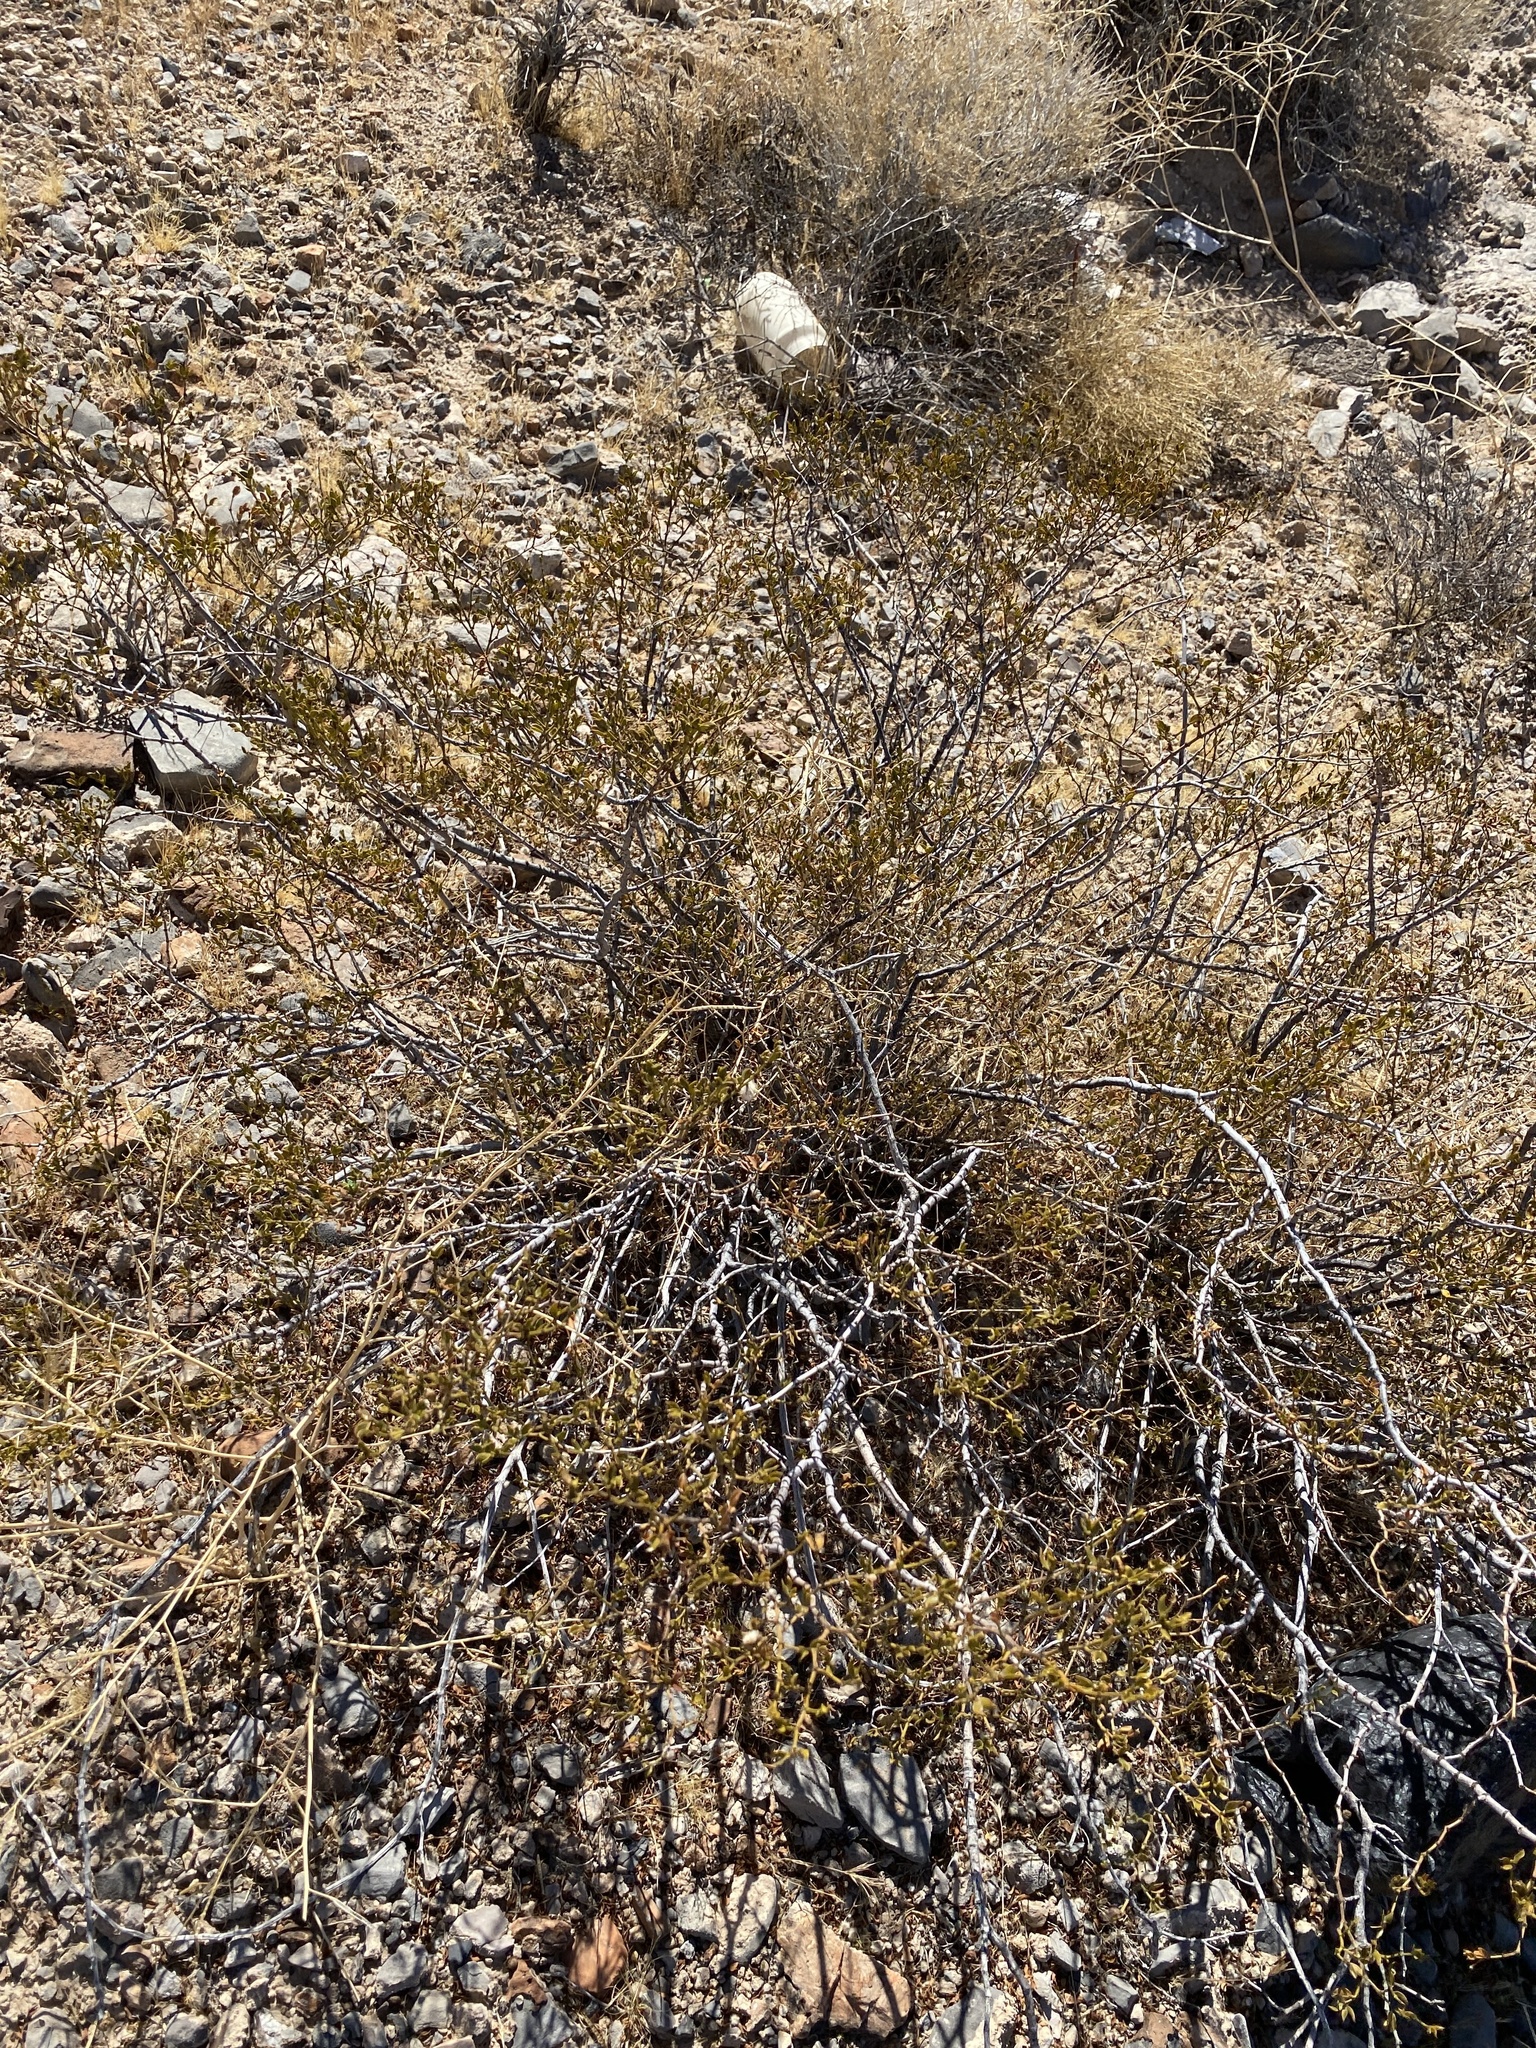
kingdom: Plantae
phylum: Tracheophyta
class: Magnoliopsida
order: Zygophyllales
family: Zygophyllaceae
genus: Larrea
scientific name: Larrea tridentata
